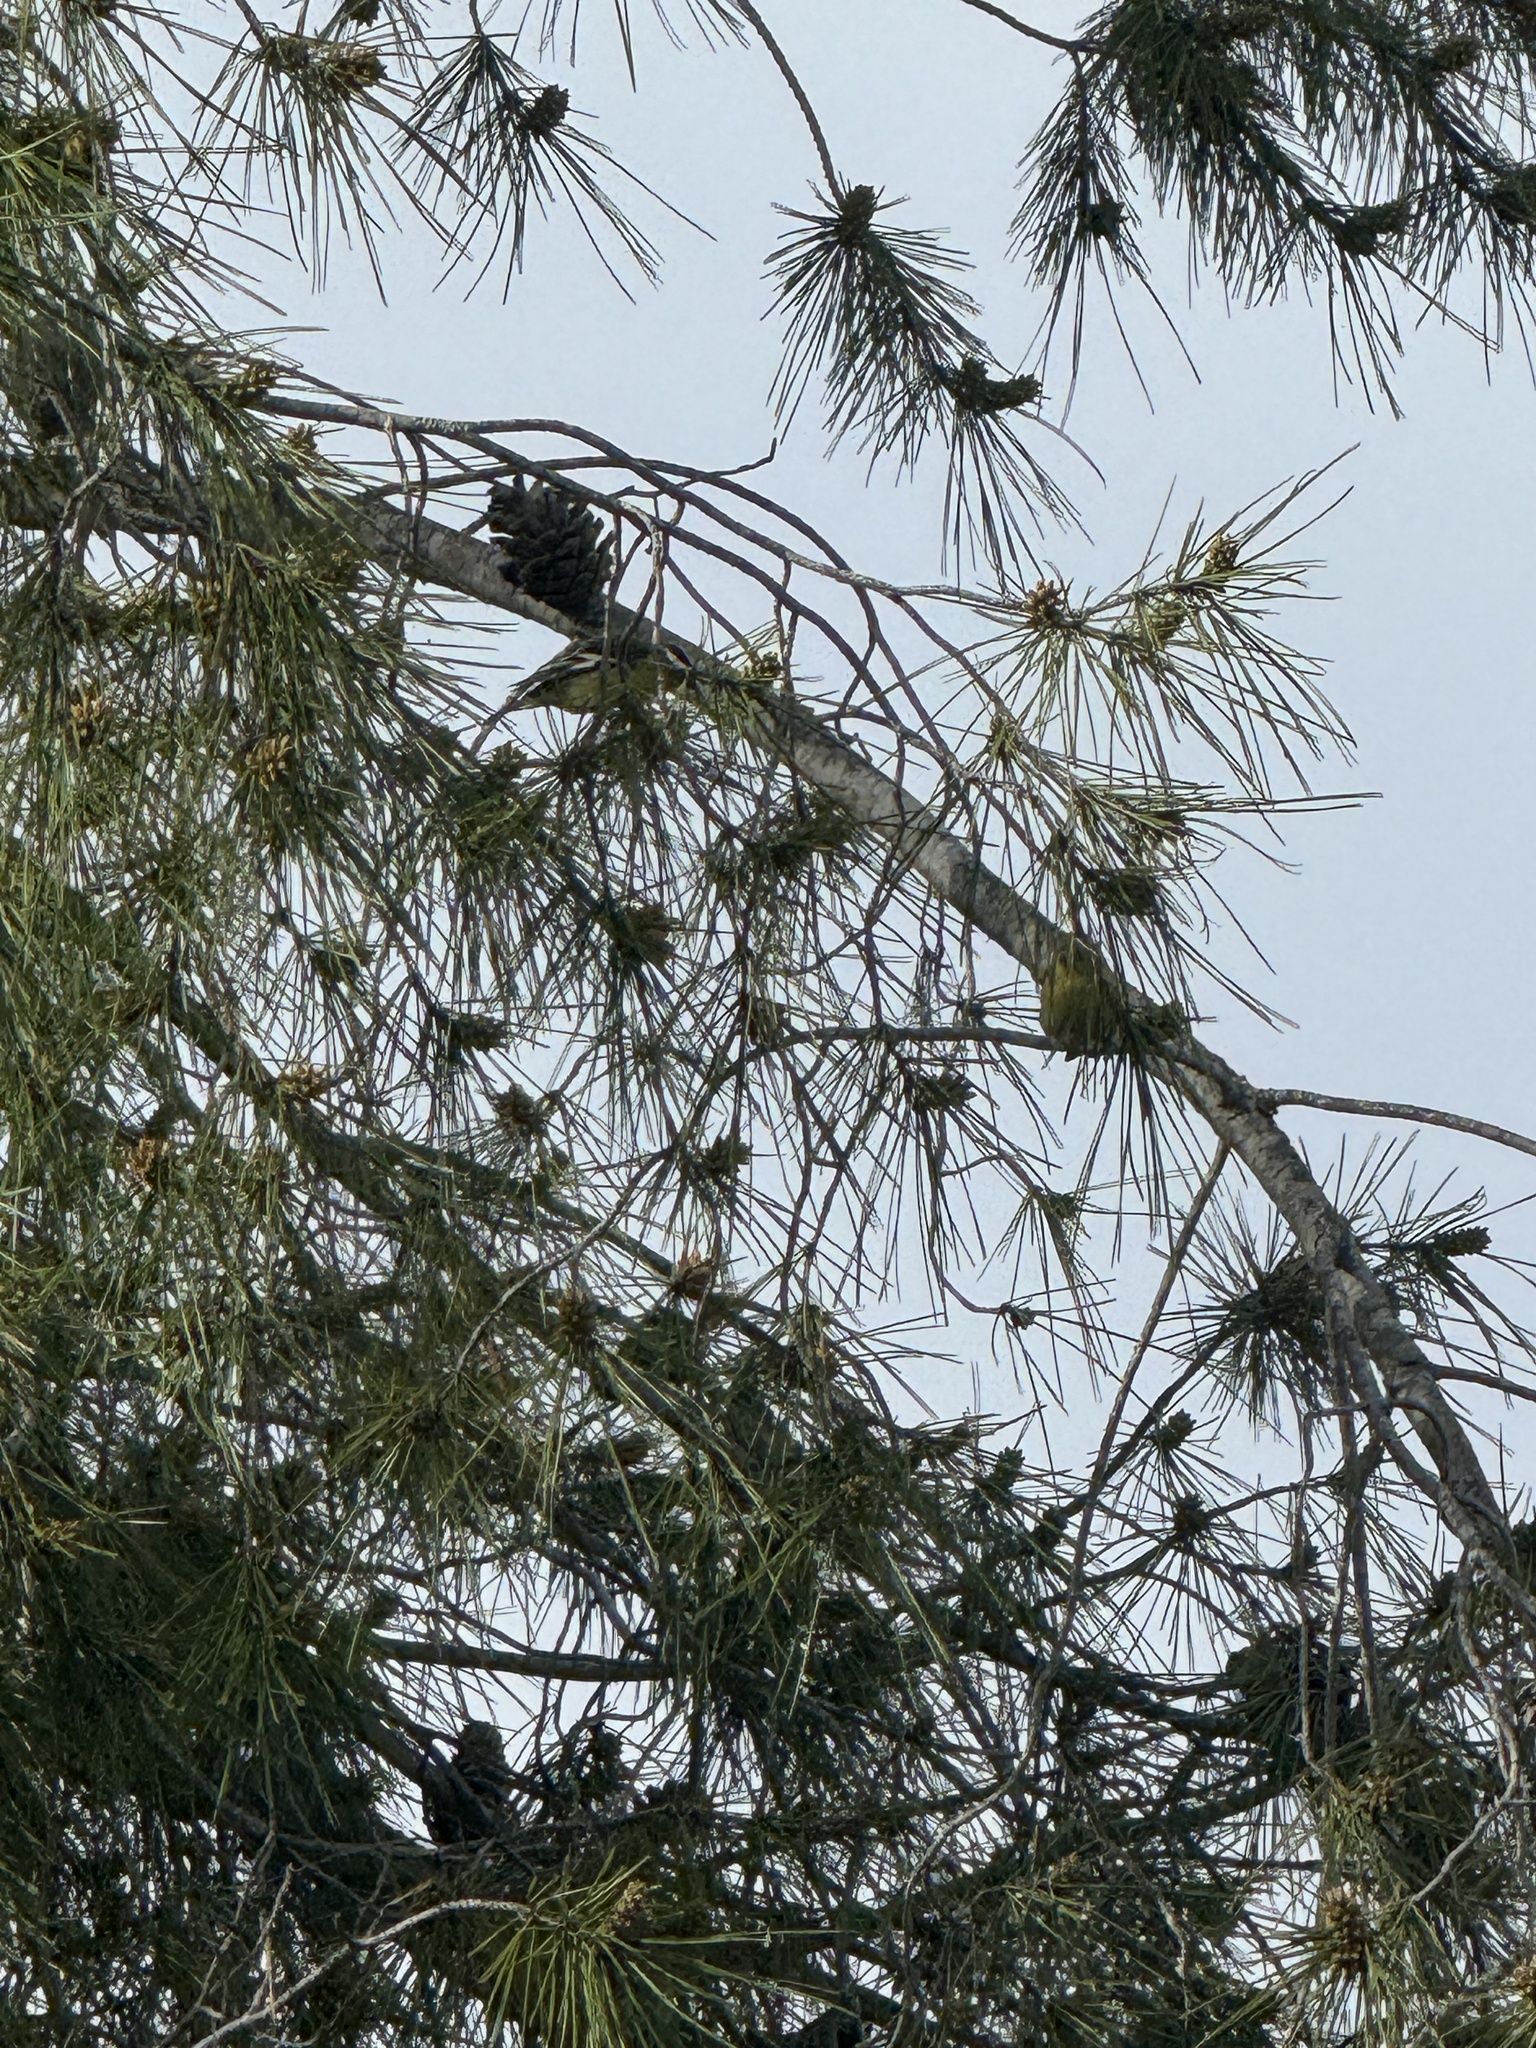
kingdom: Animalia
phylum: Chordata
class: Aves
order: Passeriformes
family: Fringillidae
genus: Spinus
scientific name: Spinus psaltria
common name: Lesser goldfinch
